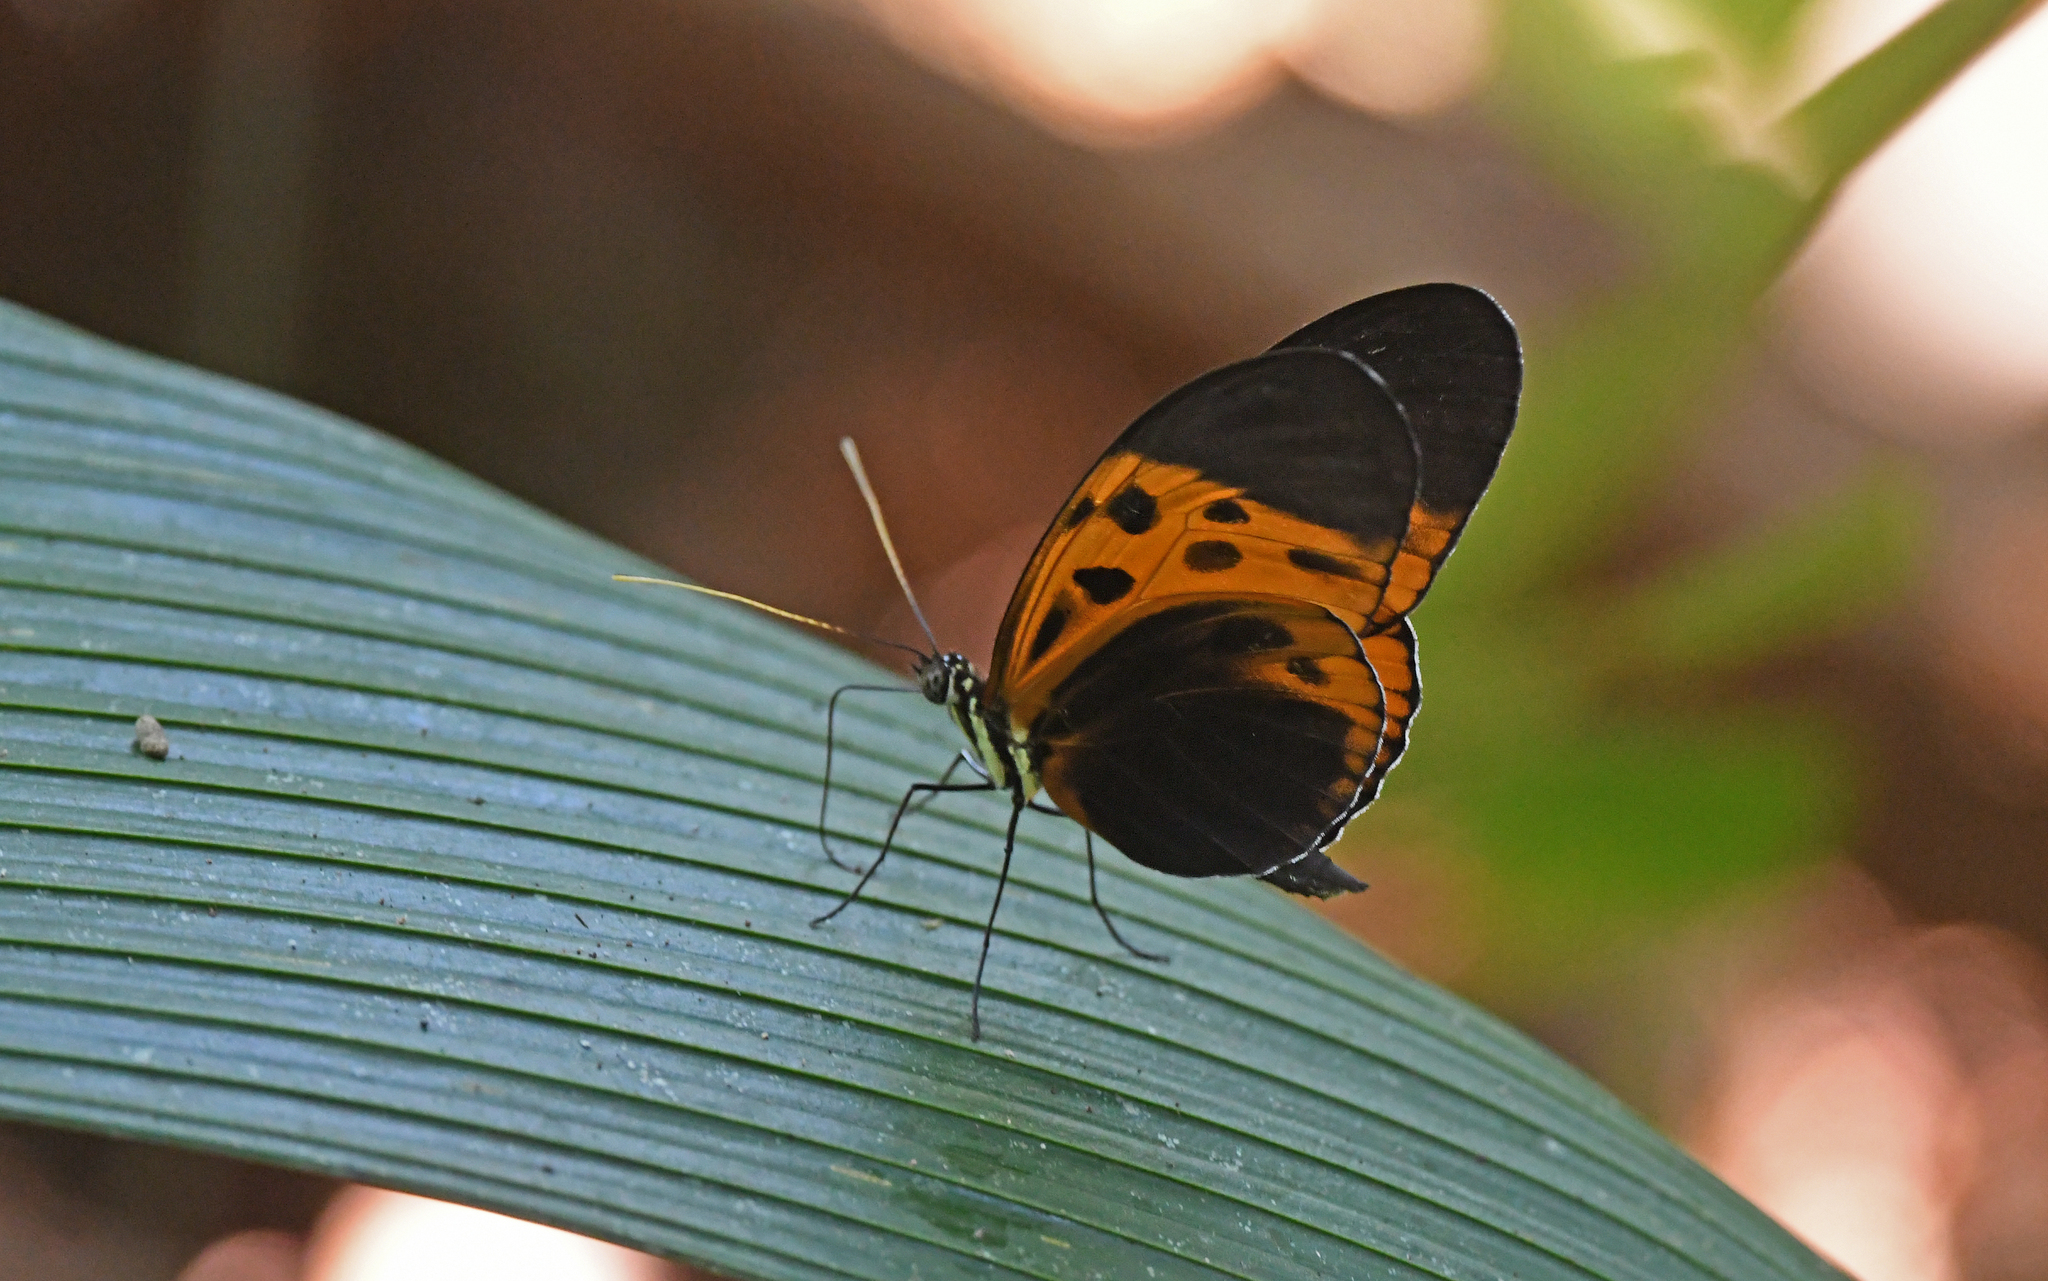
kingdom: Animalia
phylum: Arthropoda
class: Insecta
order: Lepidoptera
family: Nymphalidae
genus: Heliconius
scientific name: Heliconius numatus
